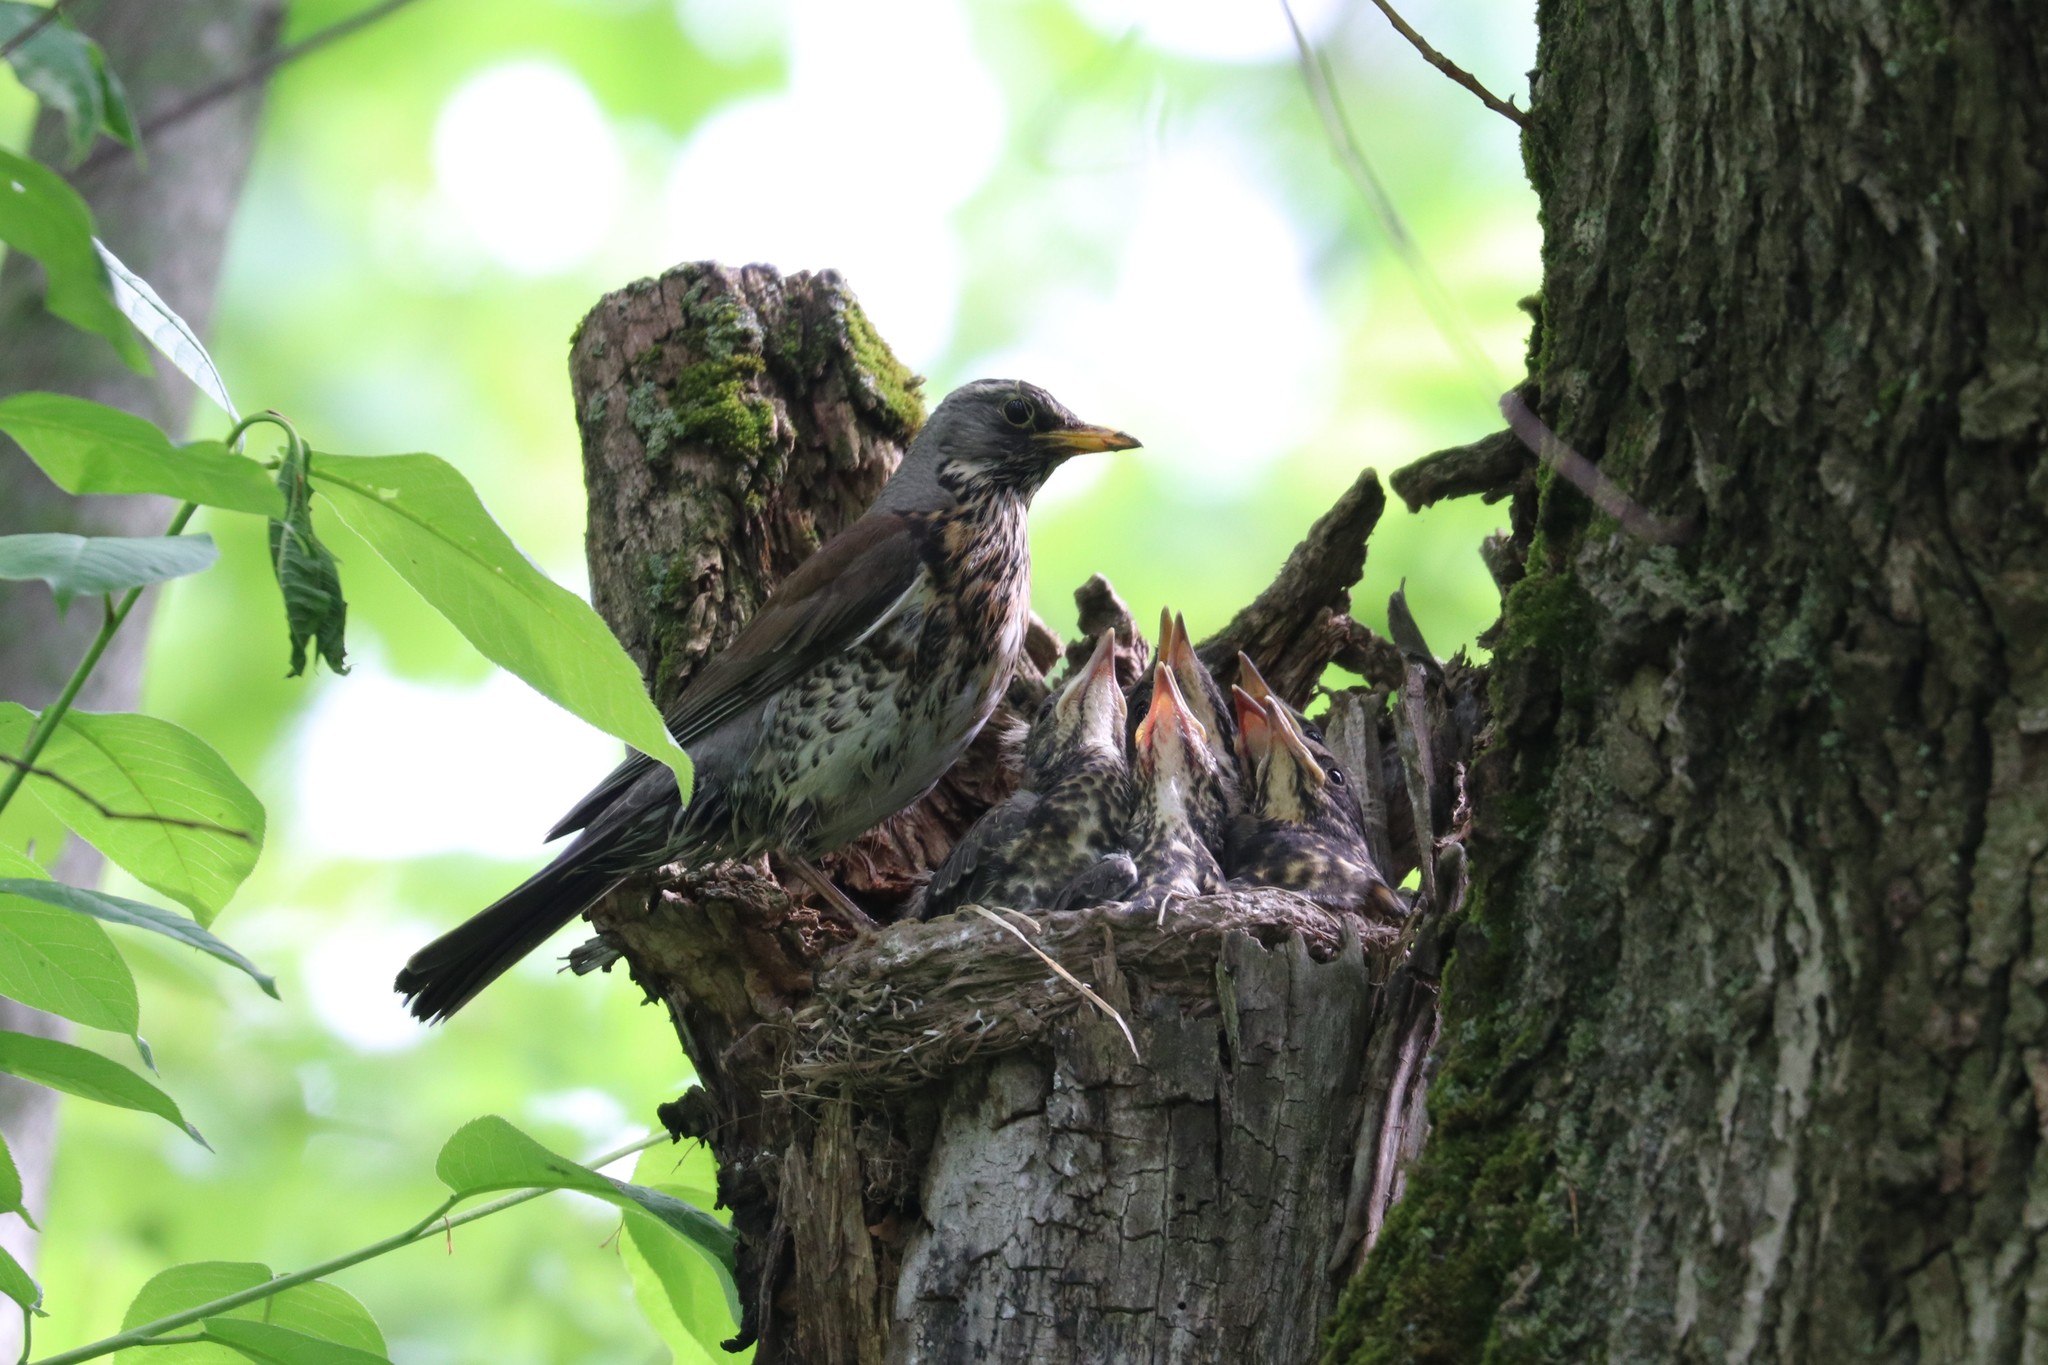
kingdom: Animalia
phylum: Chordata
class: Aves
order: Passeriformes
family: Turdidae
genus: Turdus
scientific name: Turdus pilaris
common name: Fieldfare
